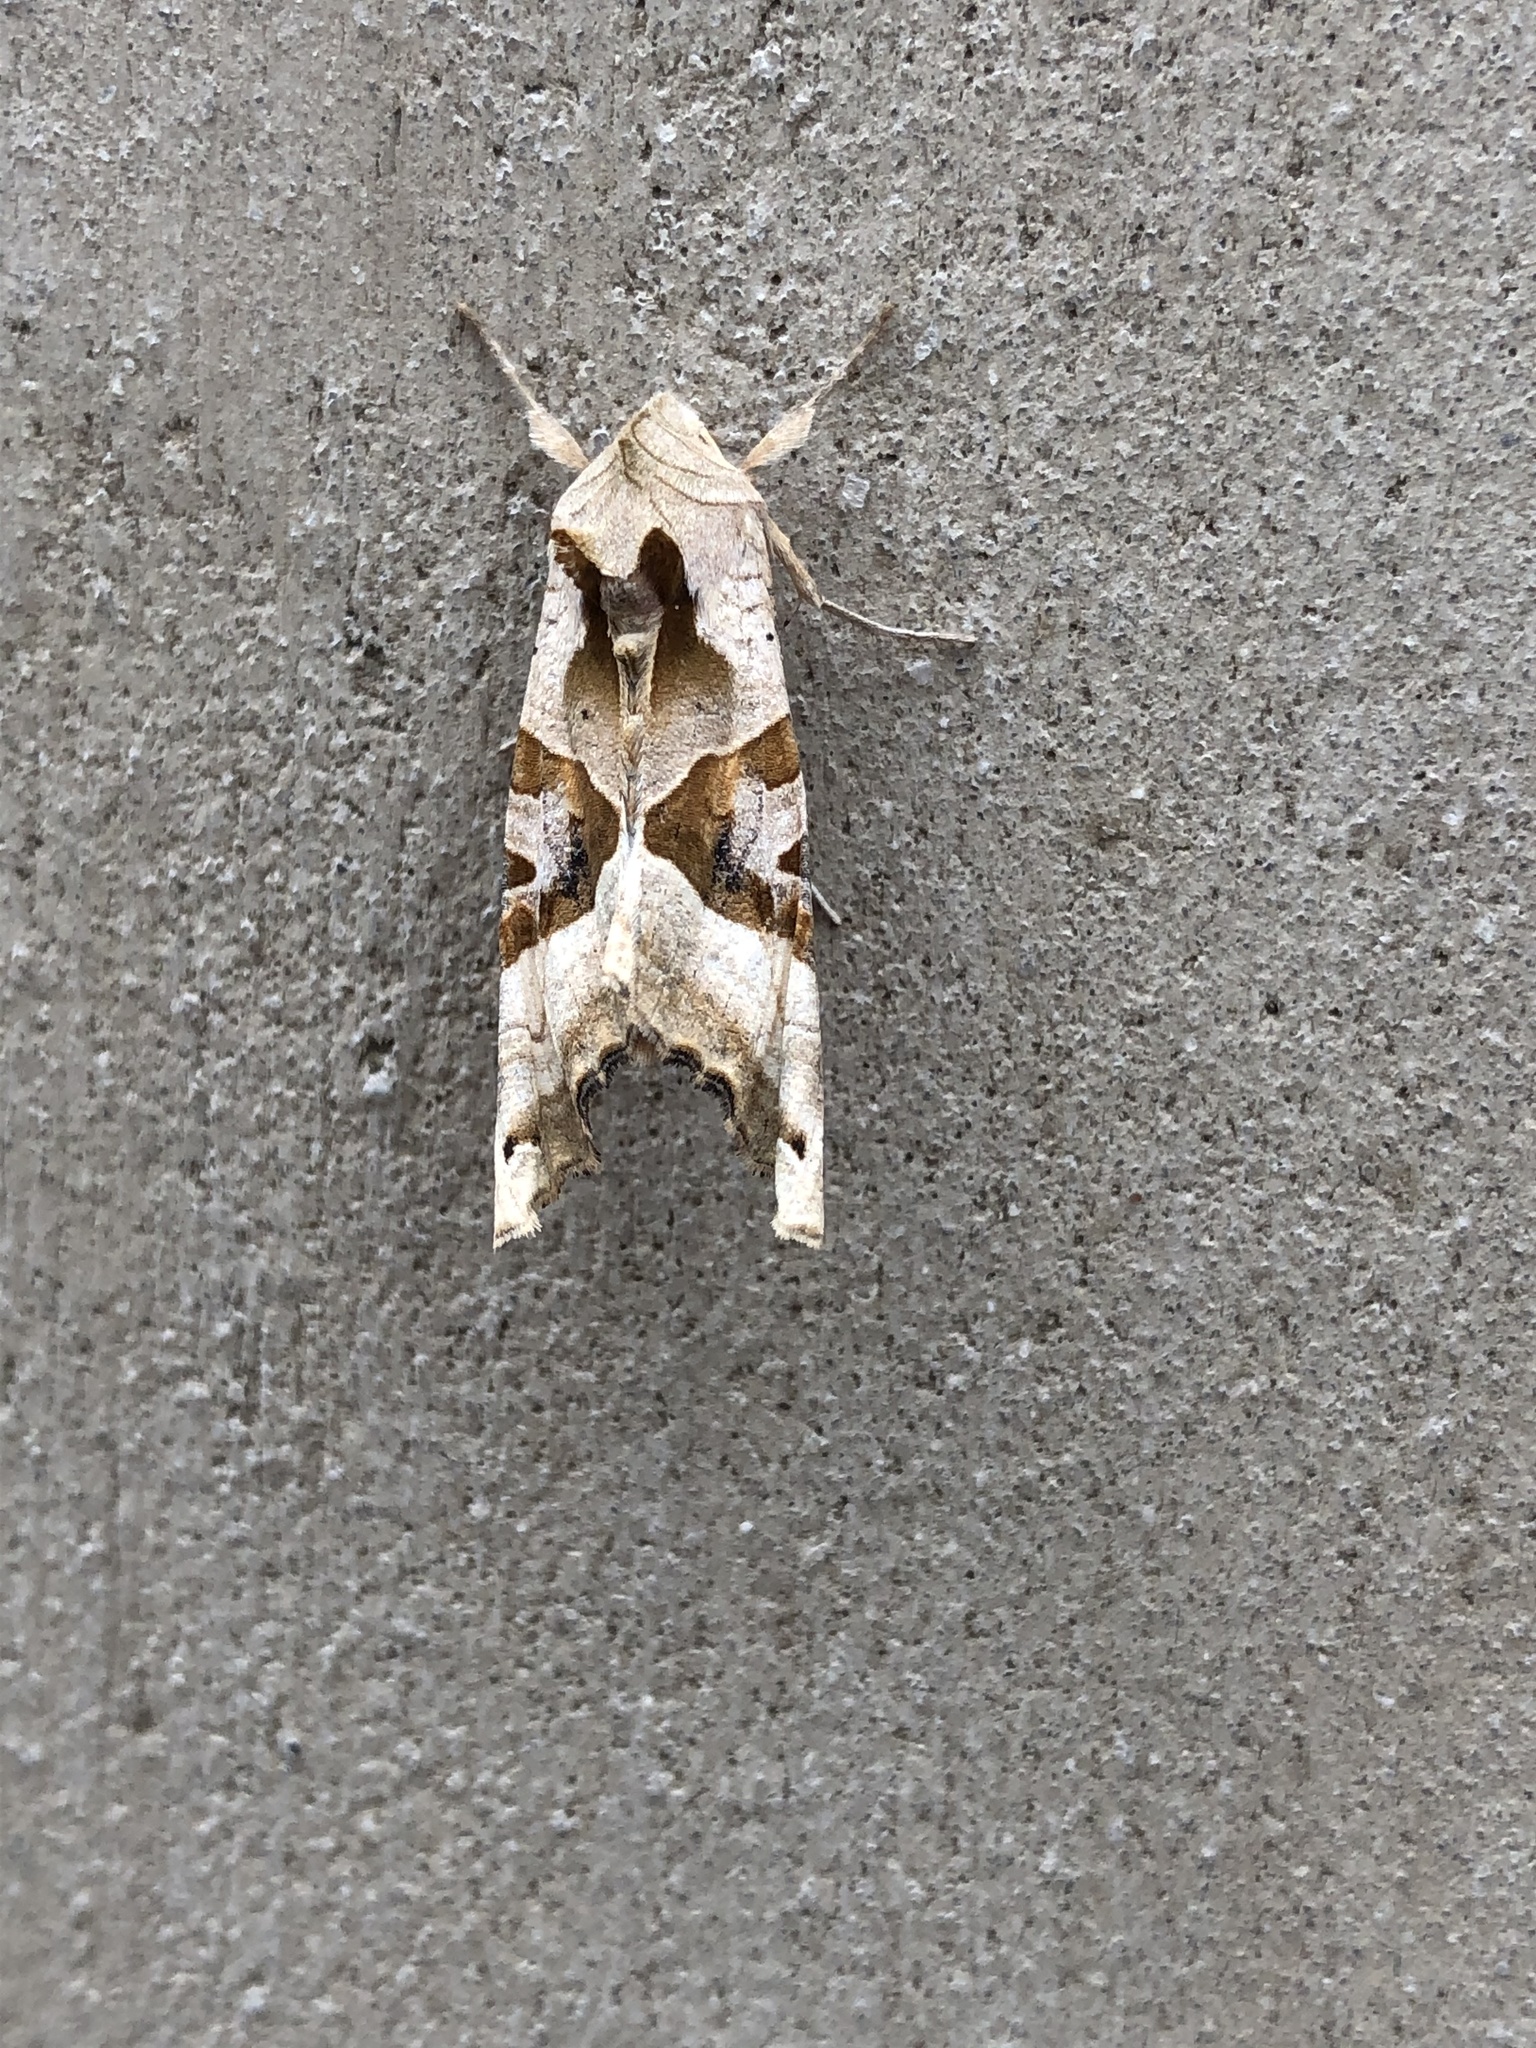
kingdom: Animalia
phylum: Arthropoda
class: Insecta
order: Lepidoptera
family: Noctuidae
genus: Phlogophora
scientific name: Phlogophora meticulosa
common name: Angle shades
